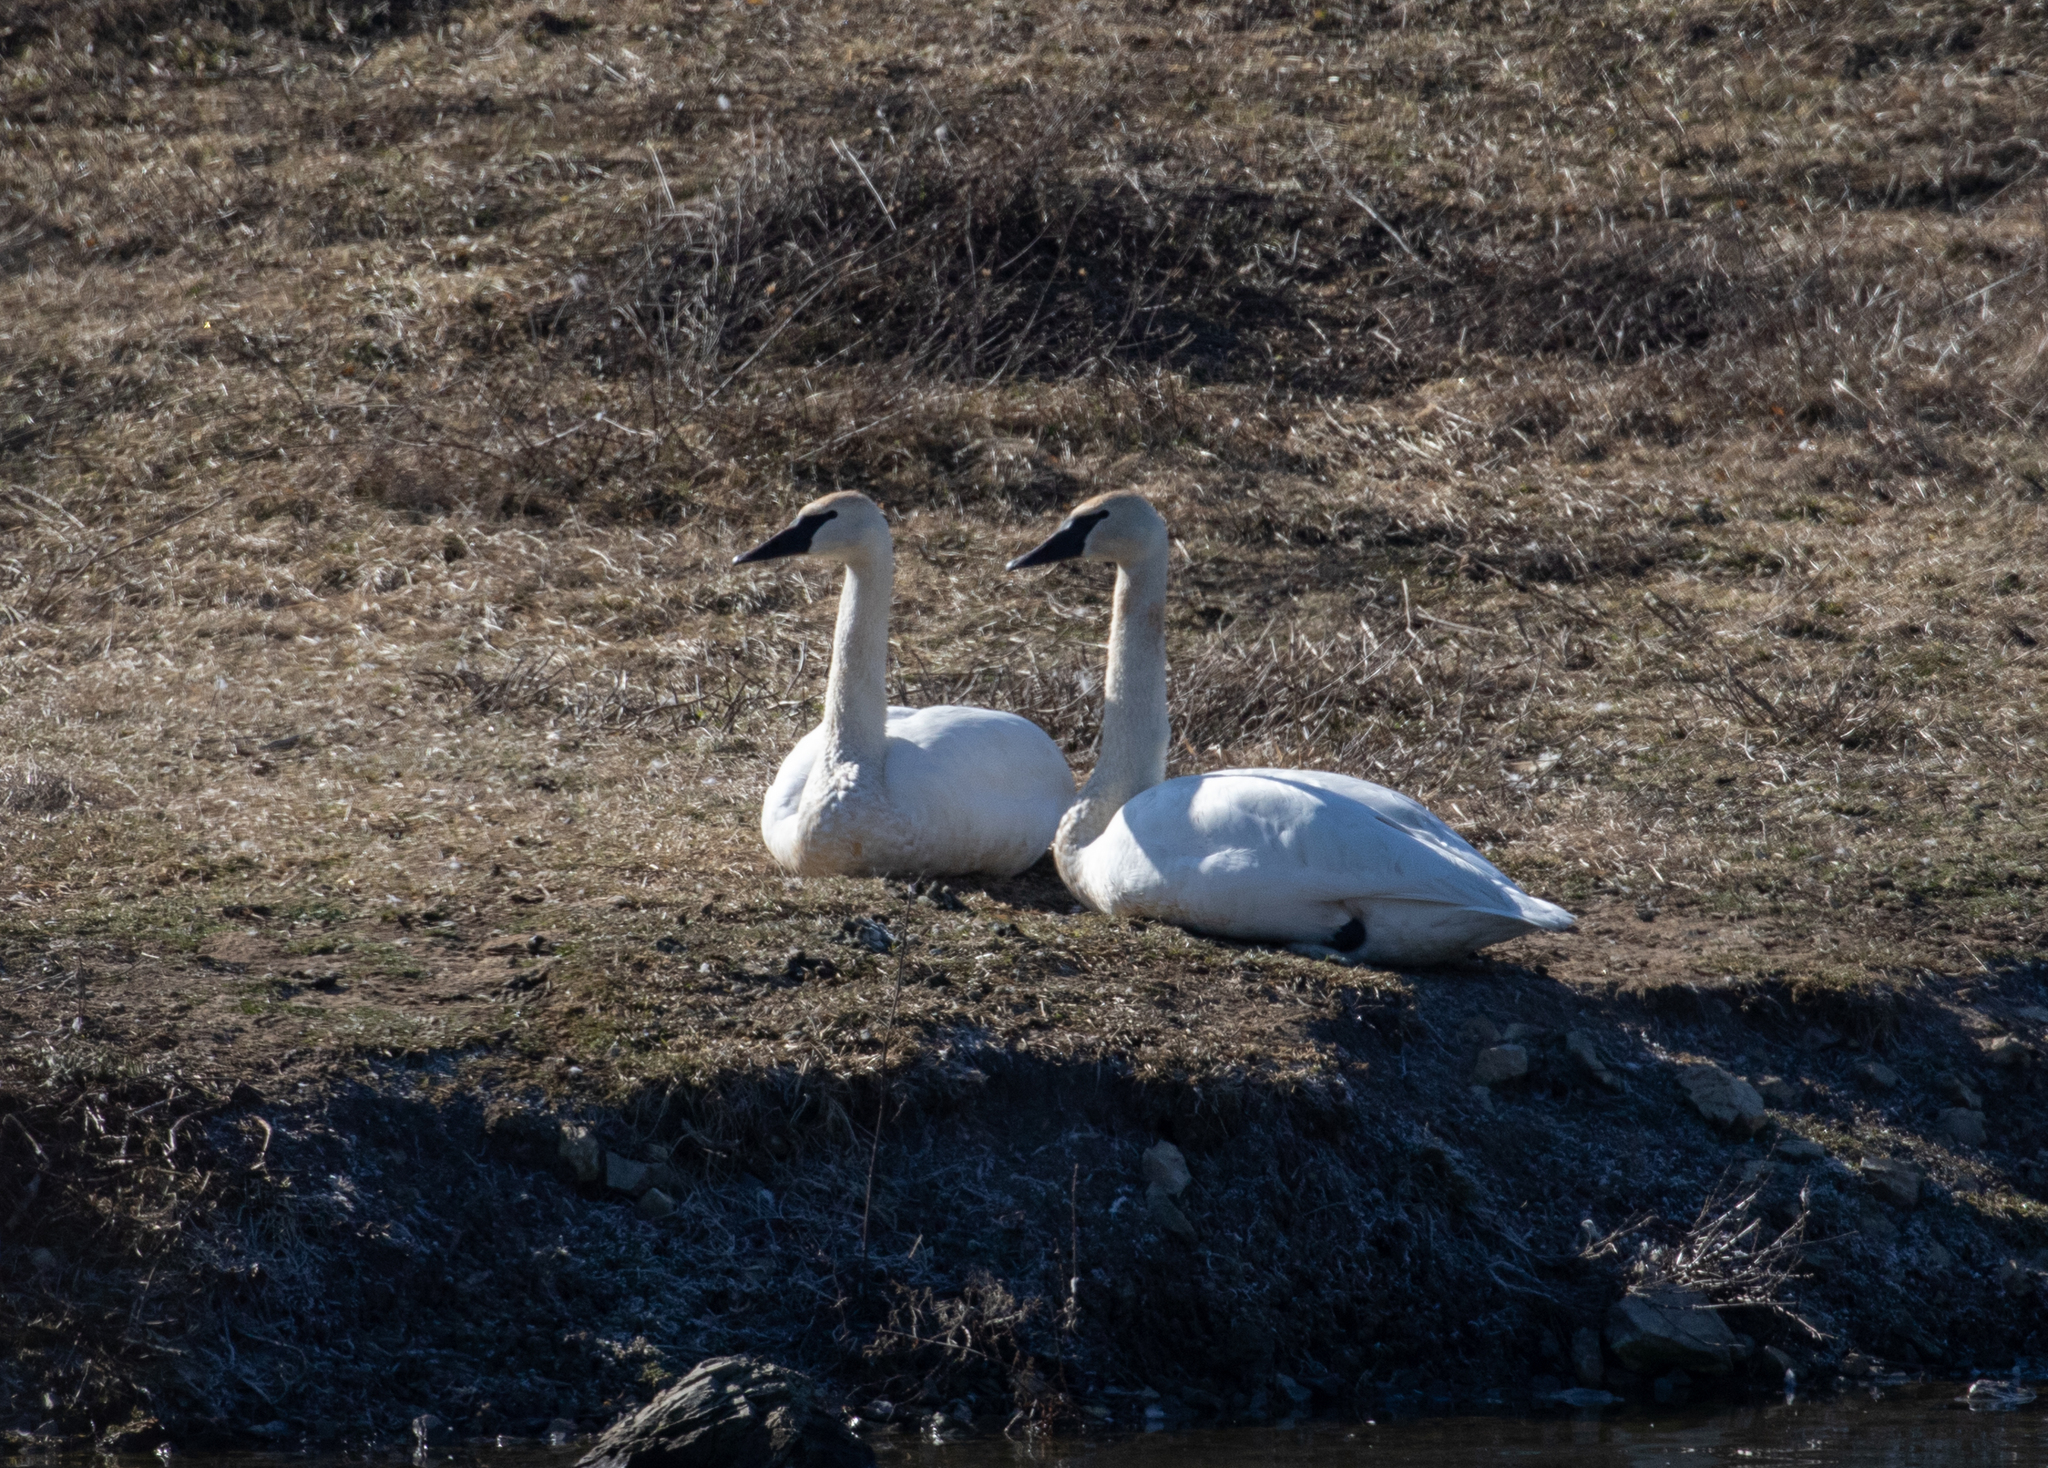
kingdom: Animalia
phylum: Chordata
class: Aves
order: Anseriformes
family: Anatidae
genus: Cygnus
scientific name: Cygnus buccinator
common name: Trumpeter swan
